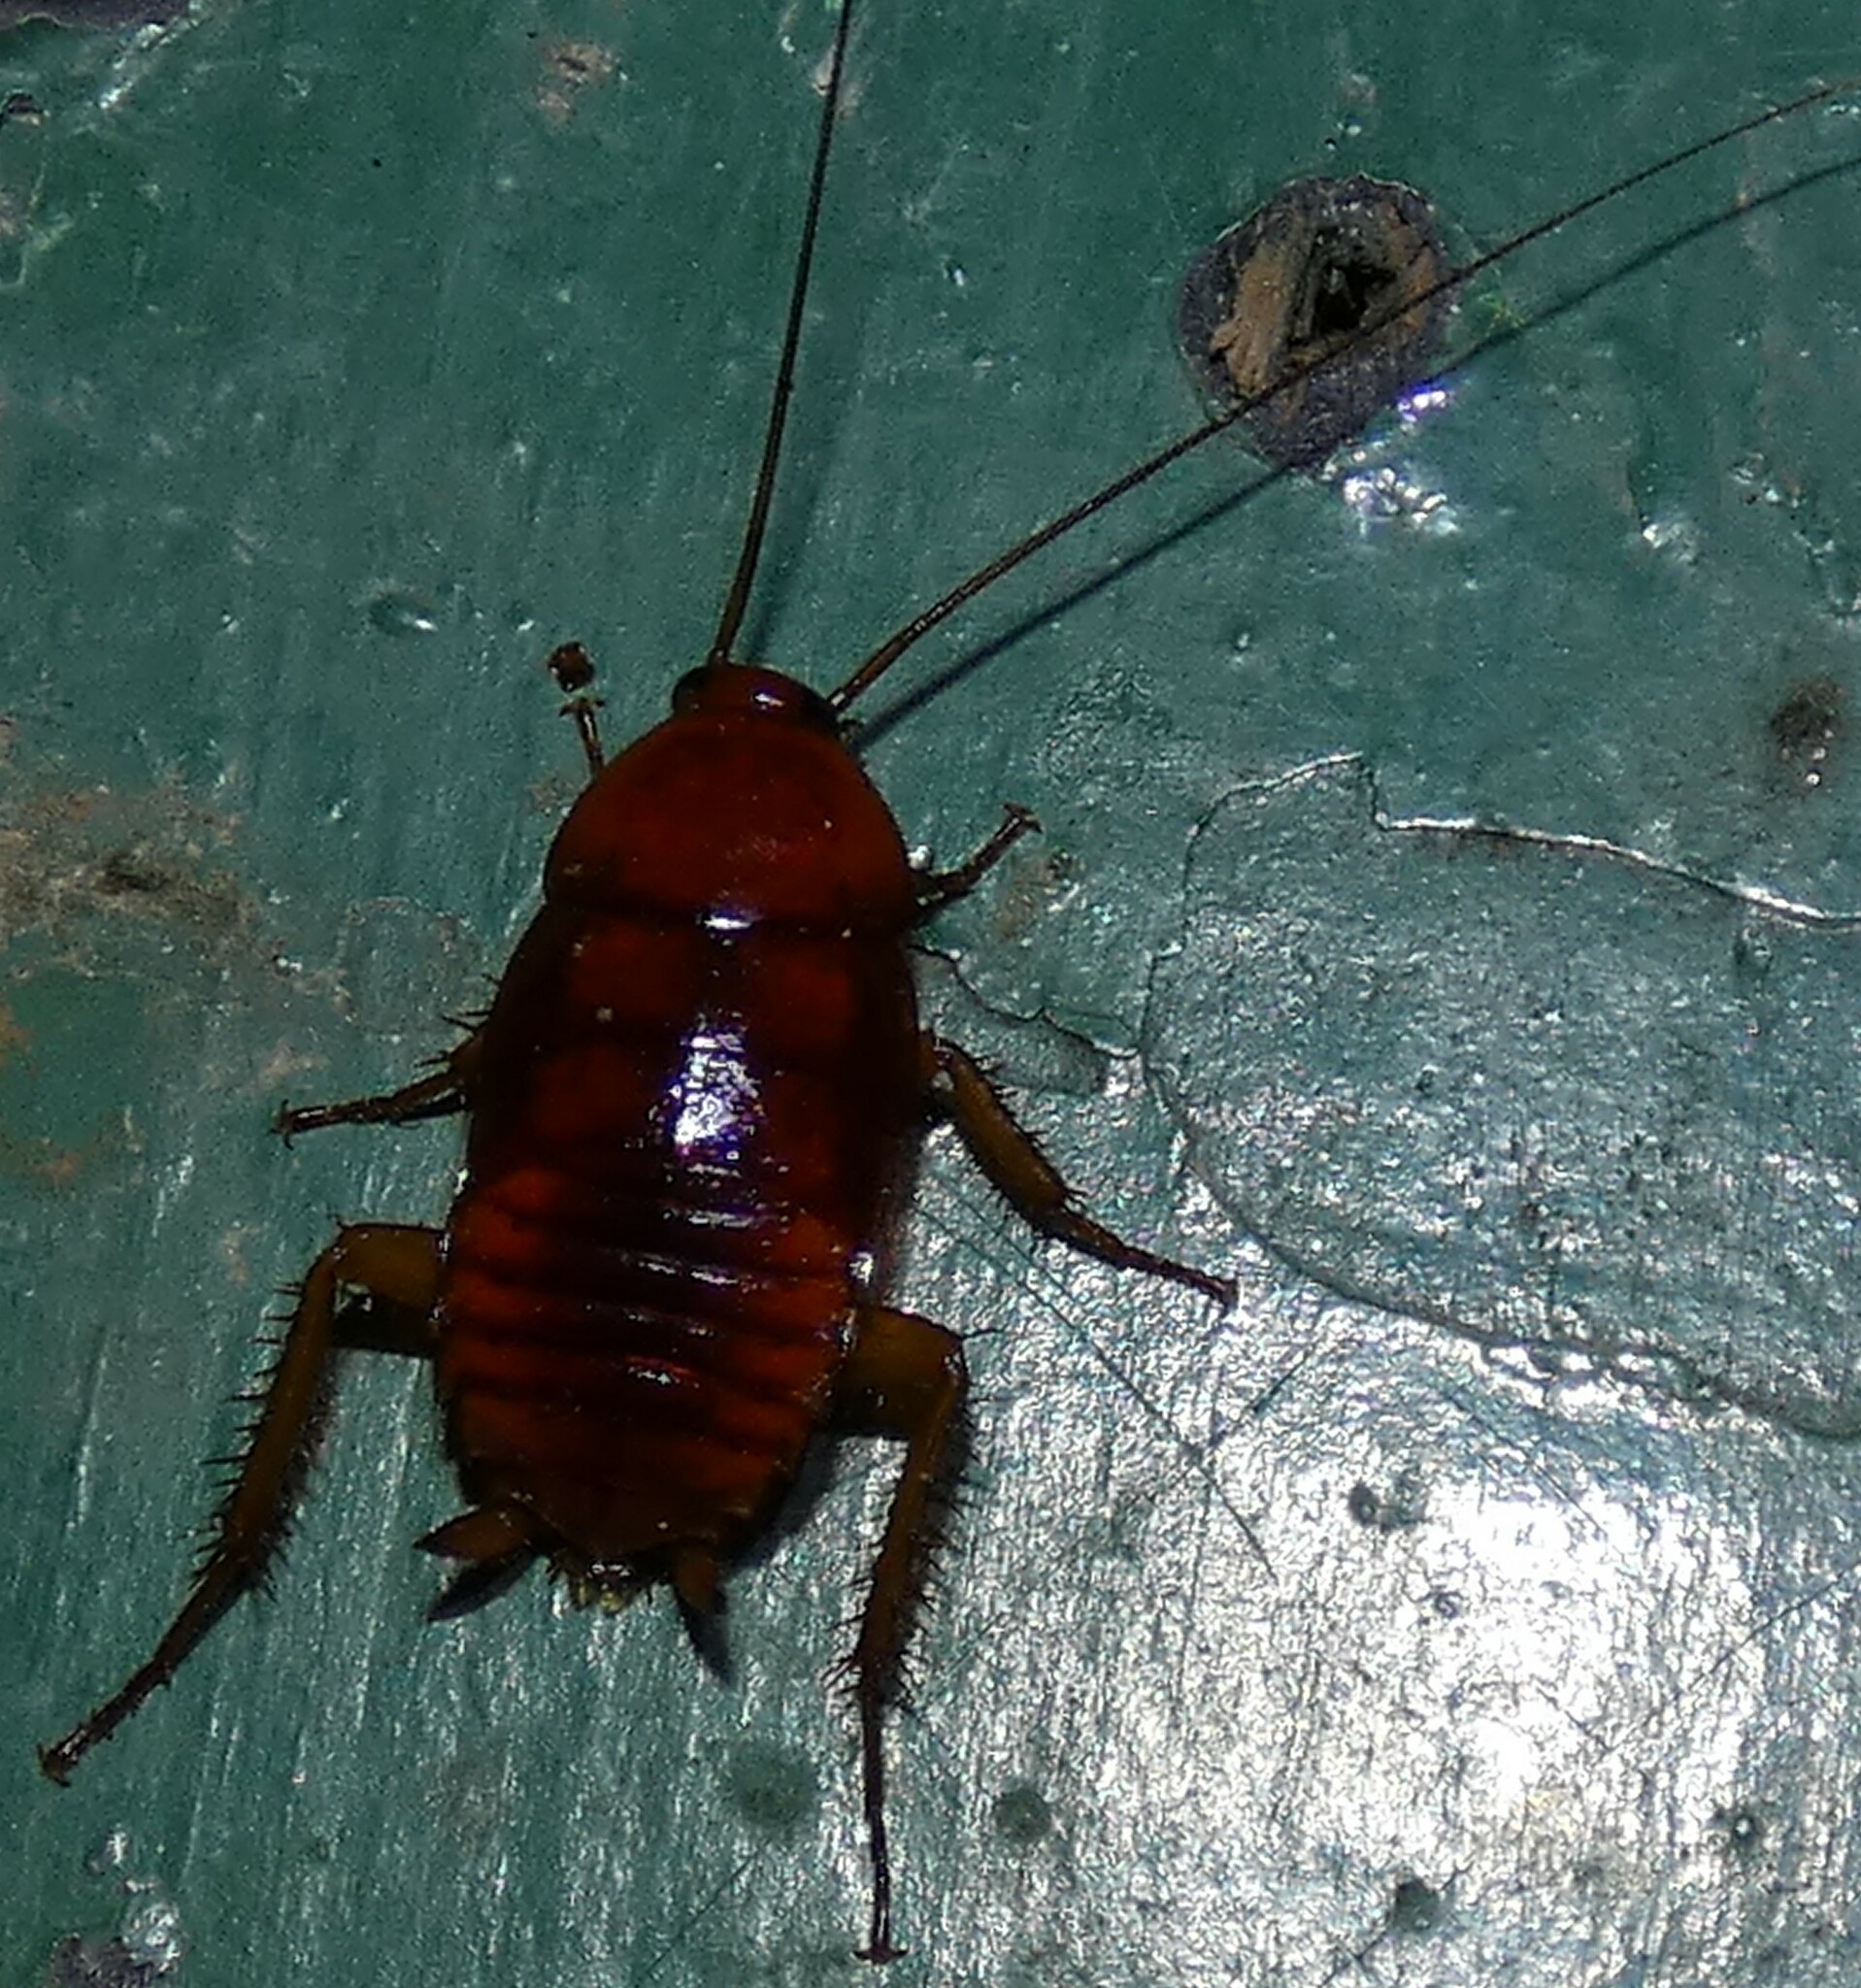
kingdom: Animalia
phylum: Arthropoda
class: Insecta
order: Blattodea
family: Blattidae
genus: Periplaneta
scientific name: Periplaneta fuliginosa
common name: Smokeybrown cockroad
